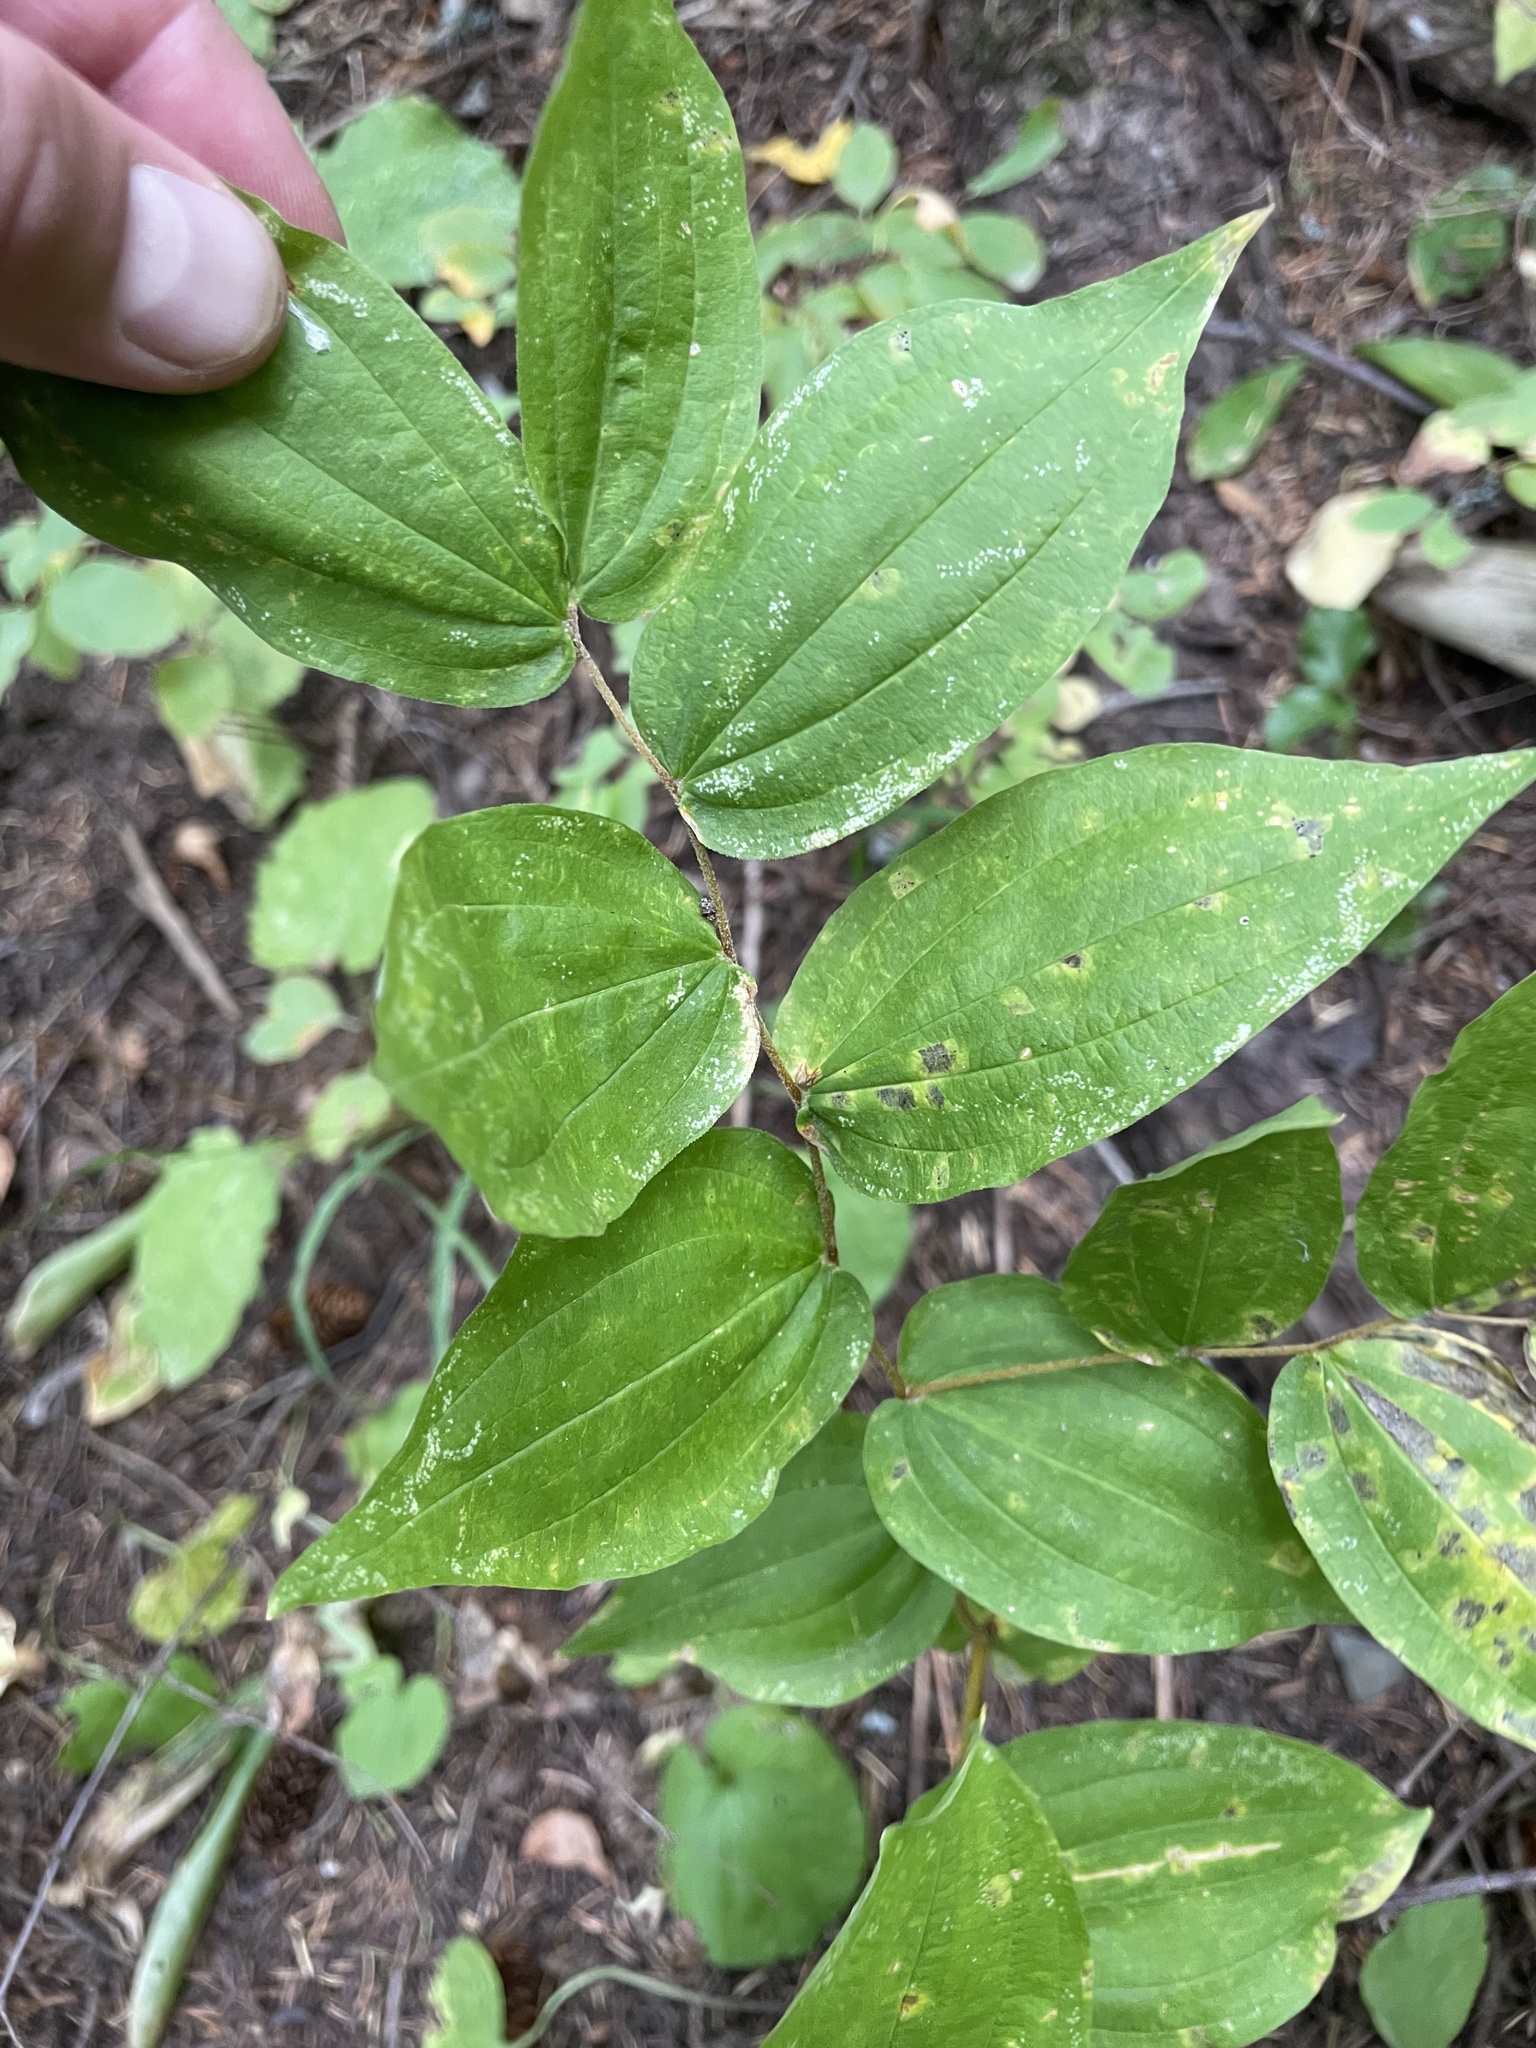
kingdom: Plantae
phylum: Tracheophyta
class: Liliopsida
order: Liliales
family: Liliaceae
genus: Prosartes
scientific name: Prosartes hookeri
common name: Fairy-bells
